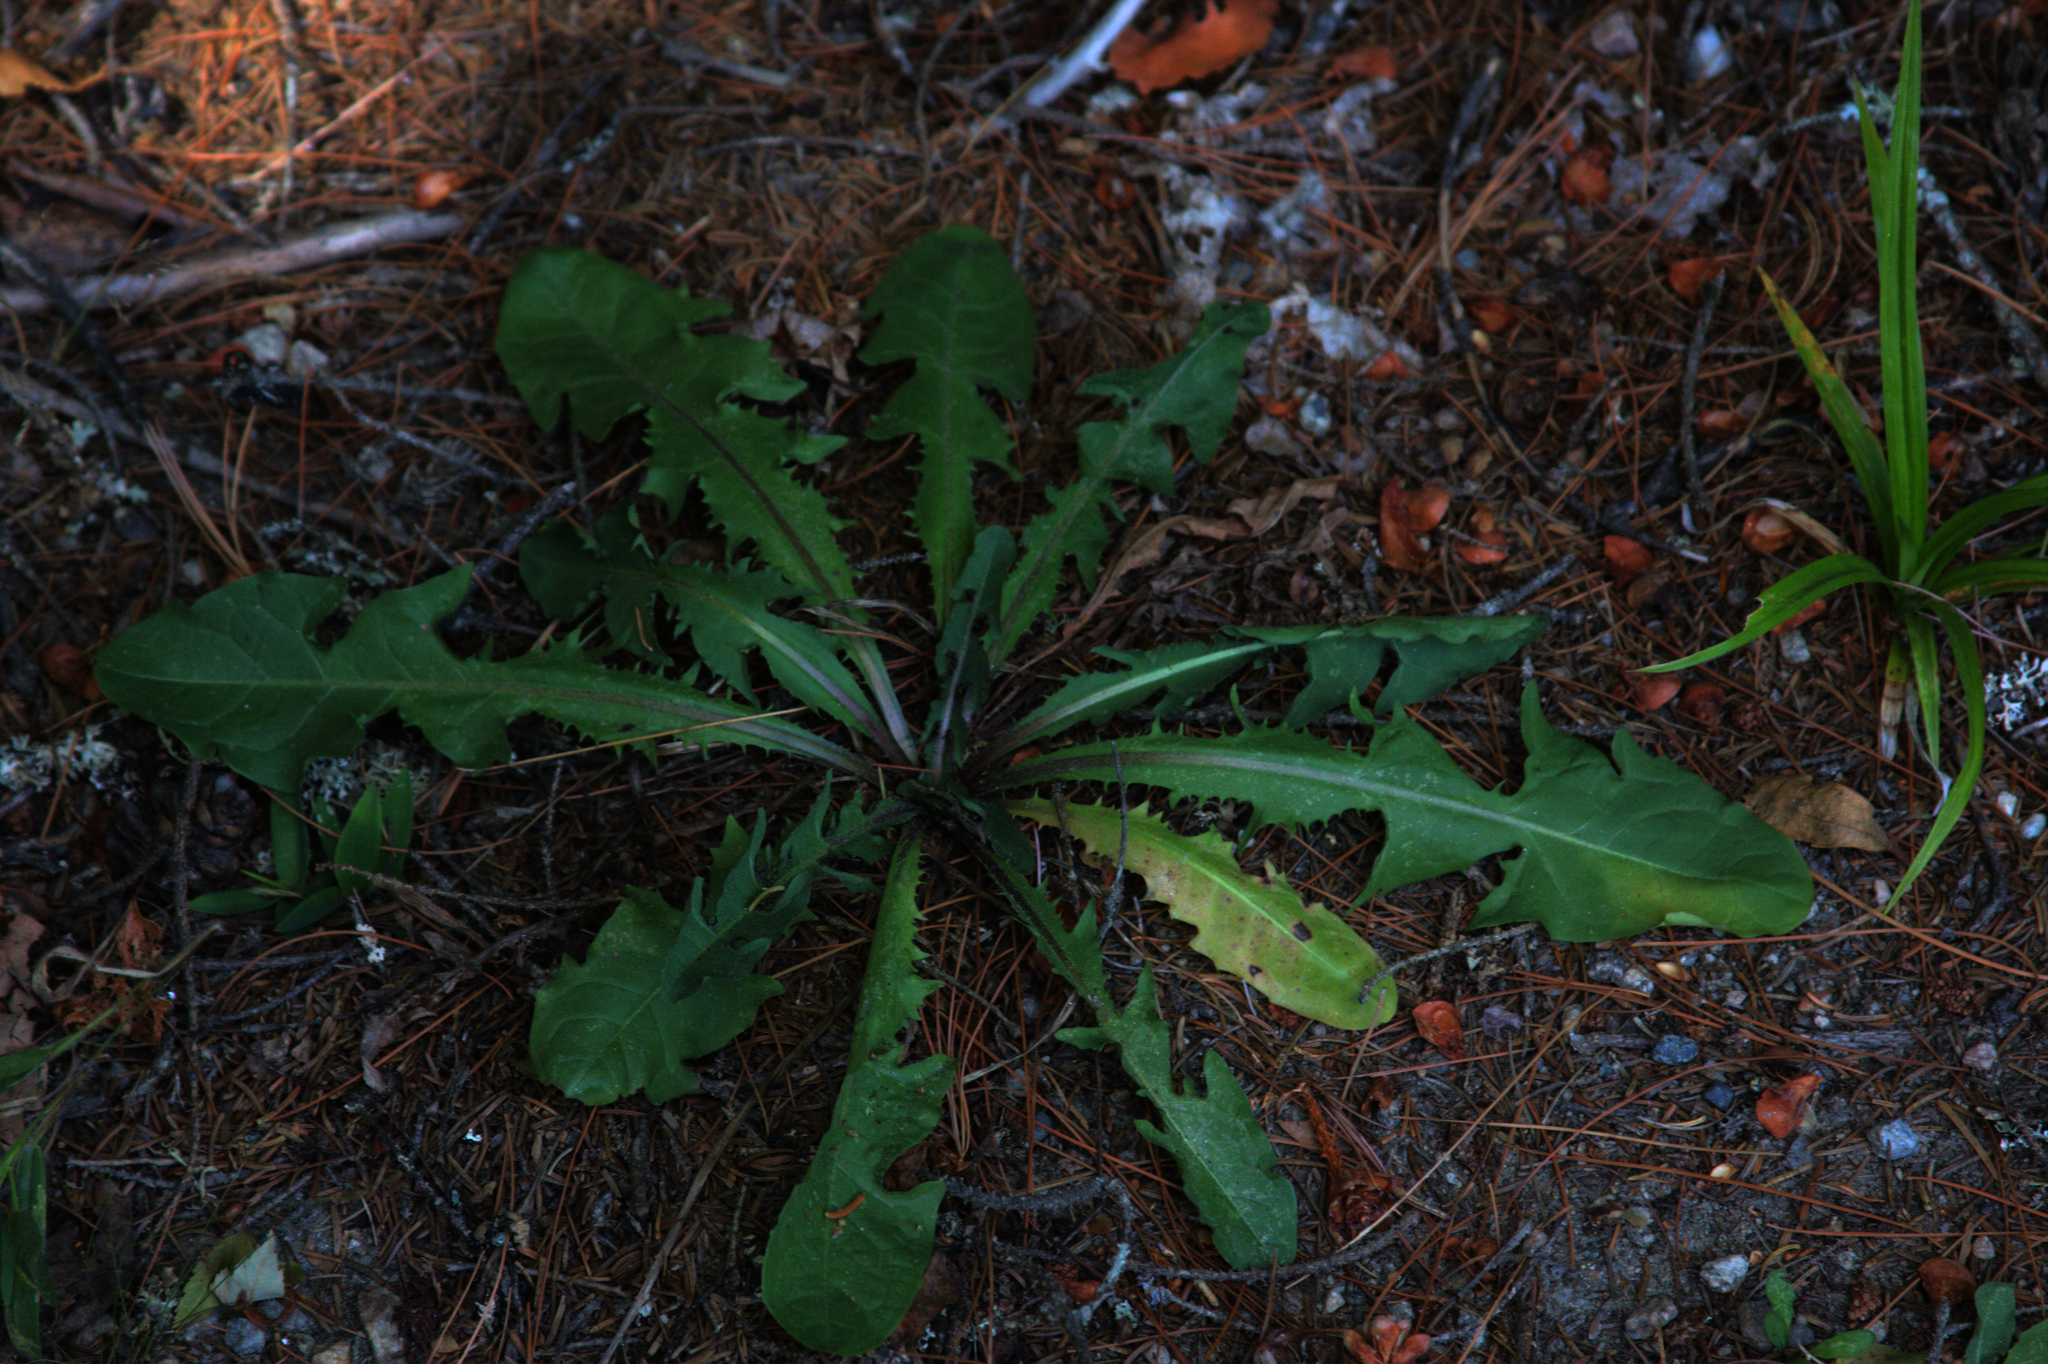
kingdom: Plantae
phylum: Tracheophyta
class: Magnoliopsida
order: Asterales
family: Asteraceae
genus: Taraxacum
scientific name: Taraxacum officinale
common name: Common dandelion
